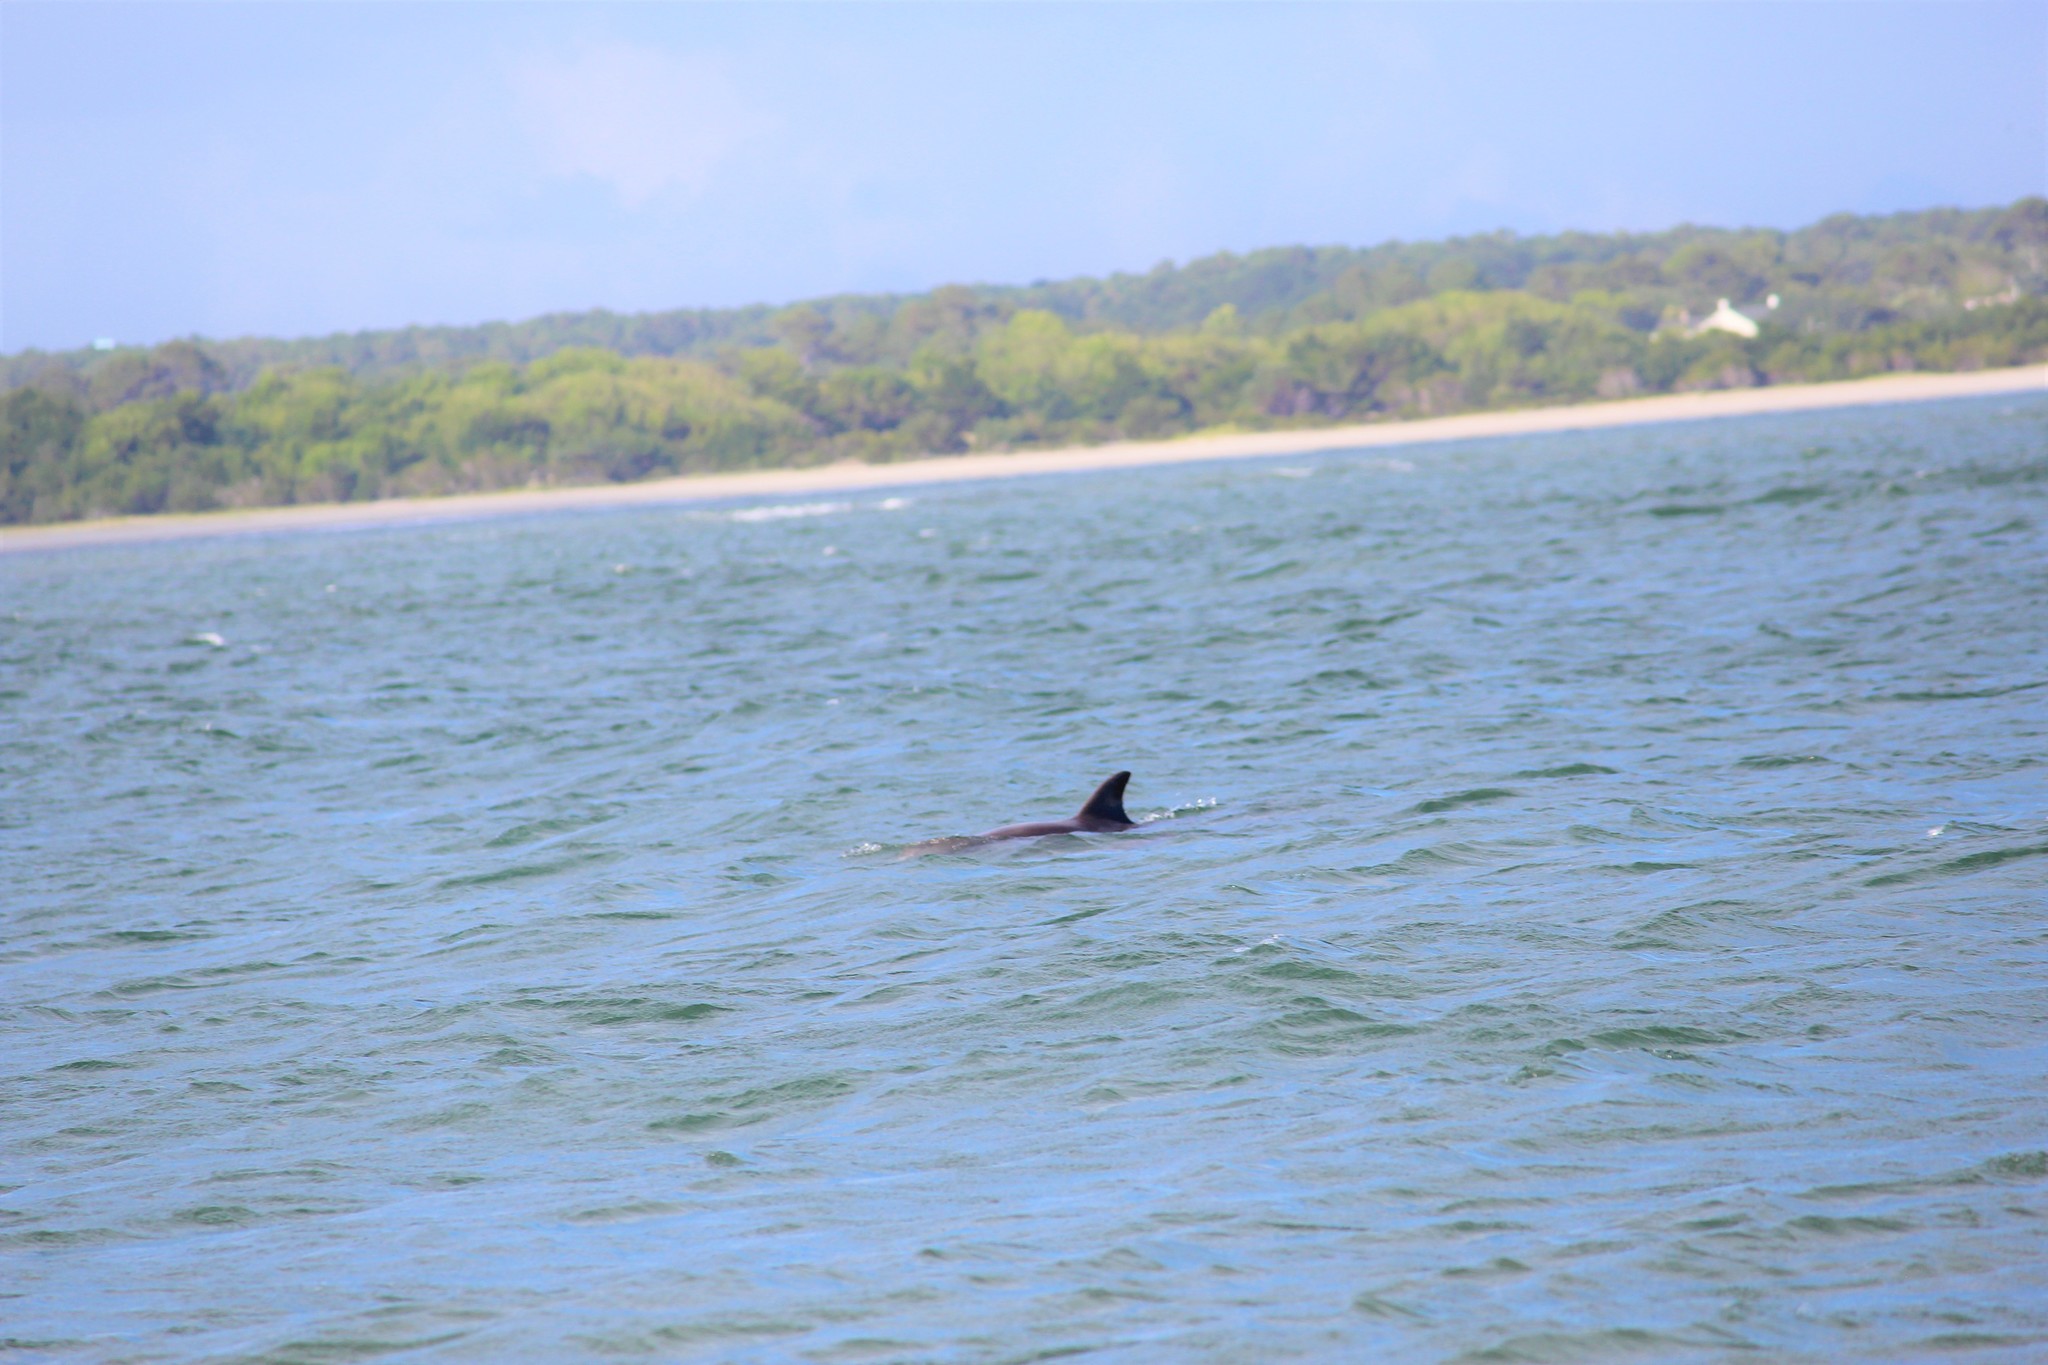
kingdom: Animalia
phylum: Chordata
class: Mammalia
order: Cetacea
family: Delphinidae
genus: Tursiops
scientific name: Tursiops truncatus
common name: Bottlenose dolphin
